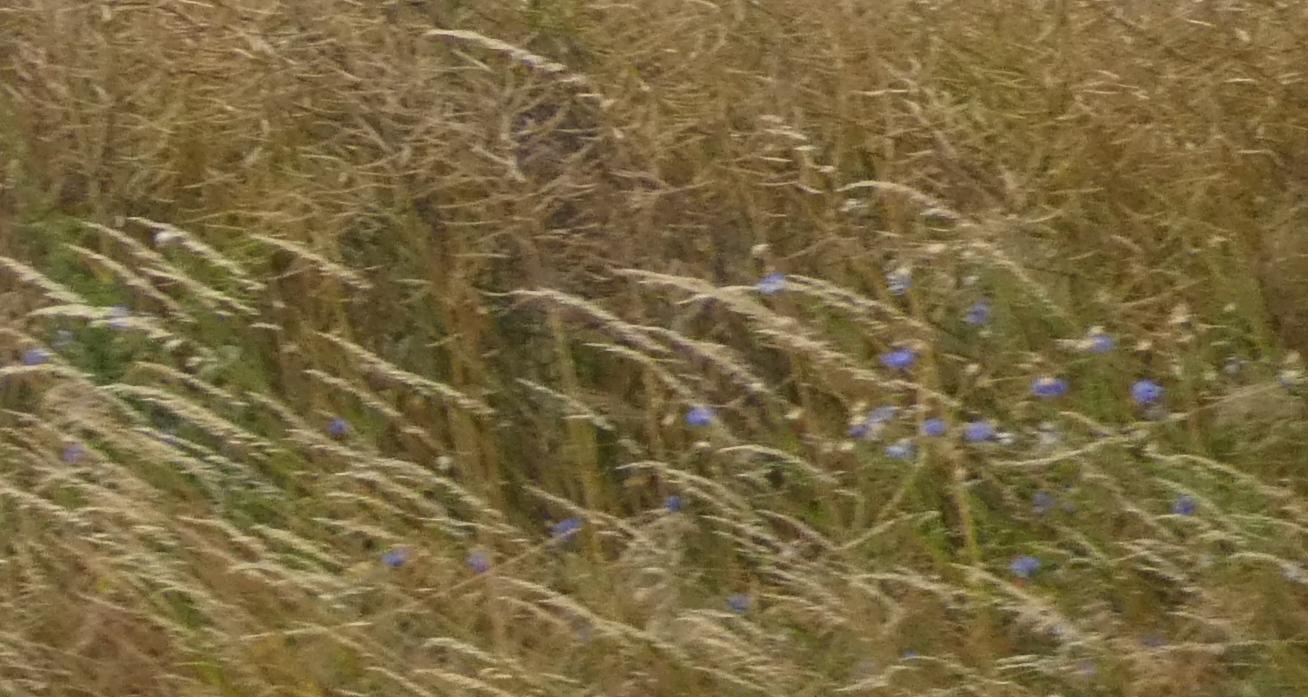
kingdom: Plantae
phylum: Tracheophyta
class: Magnoliopsida
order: Asterales
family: Asteraceae
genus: Centaurea
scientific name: Centaurea cyanus
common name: Cornflower
